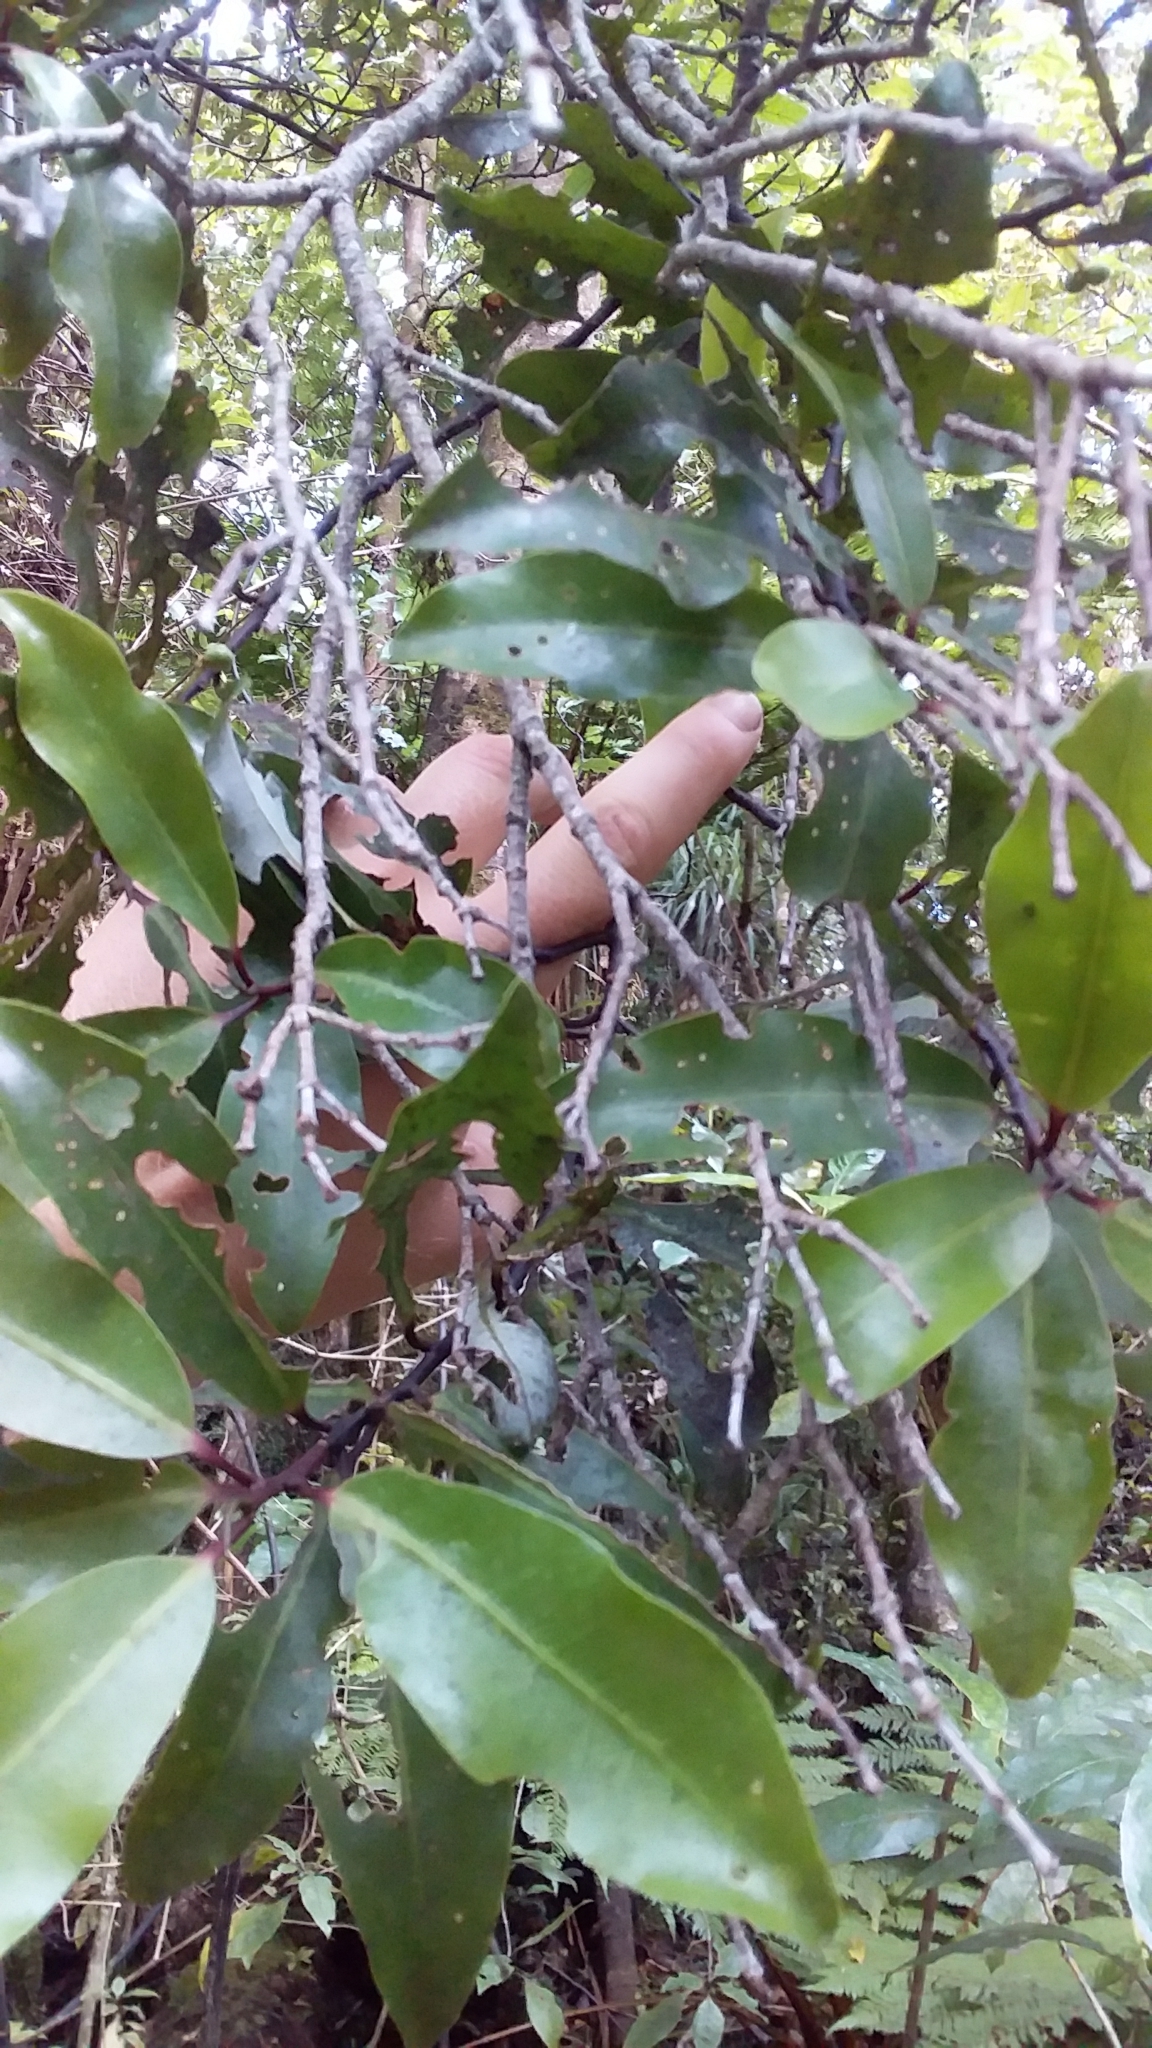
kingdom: Plantae
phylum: Tracheophyta
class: Magnoliopsida
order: Canellales
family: Winteraceae
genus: Pseudowintera
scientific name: Pseudowintera axillaris
